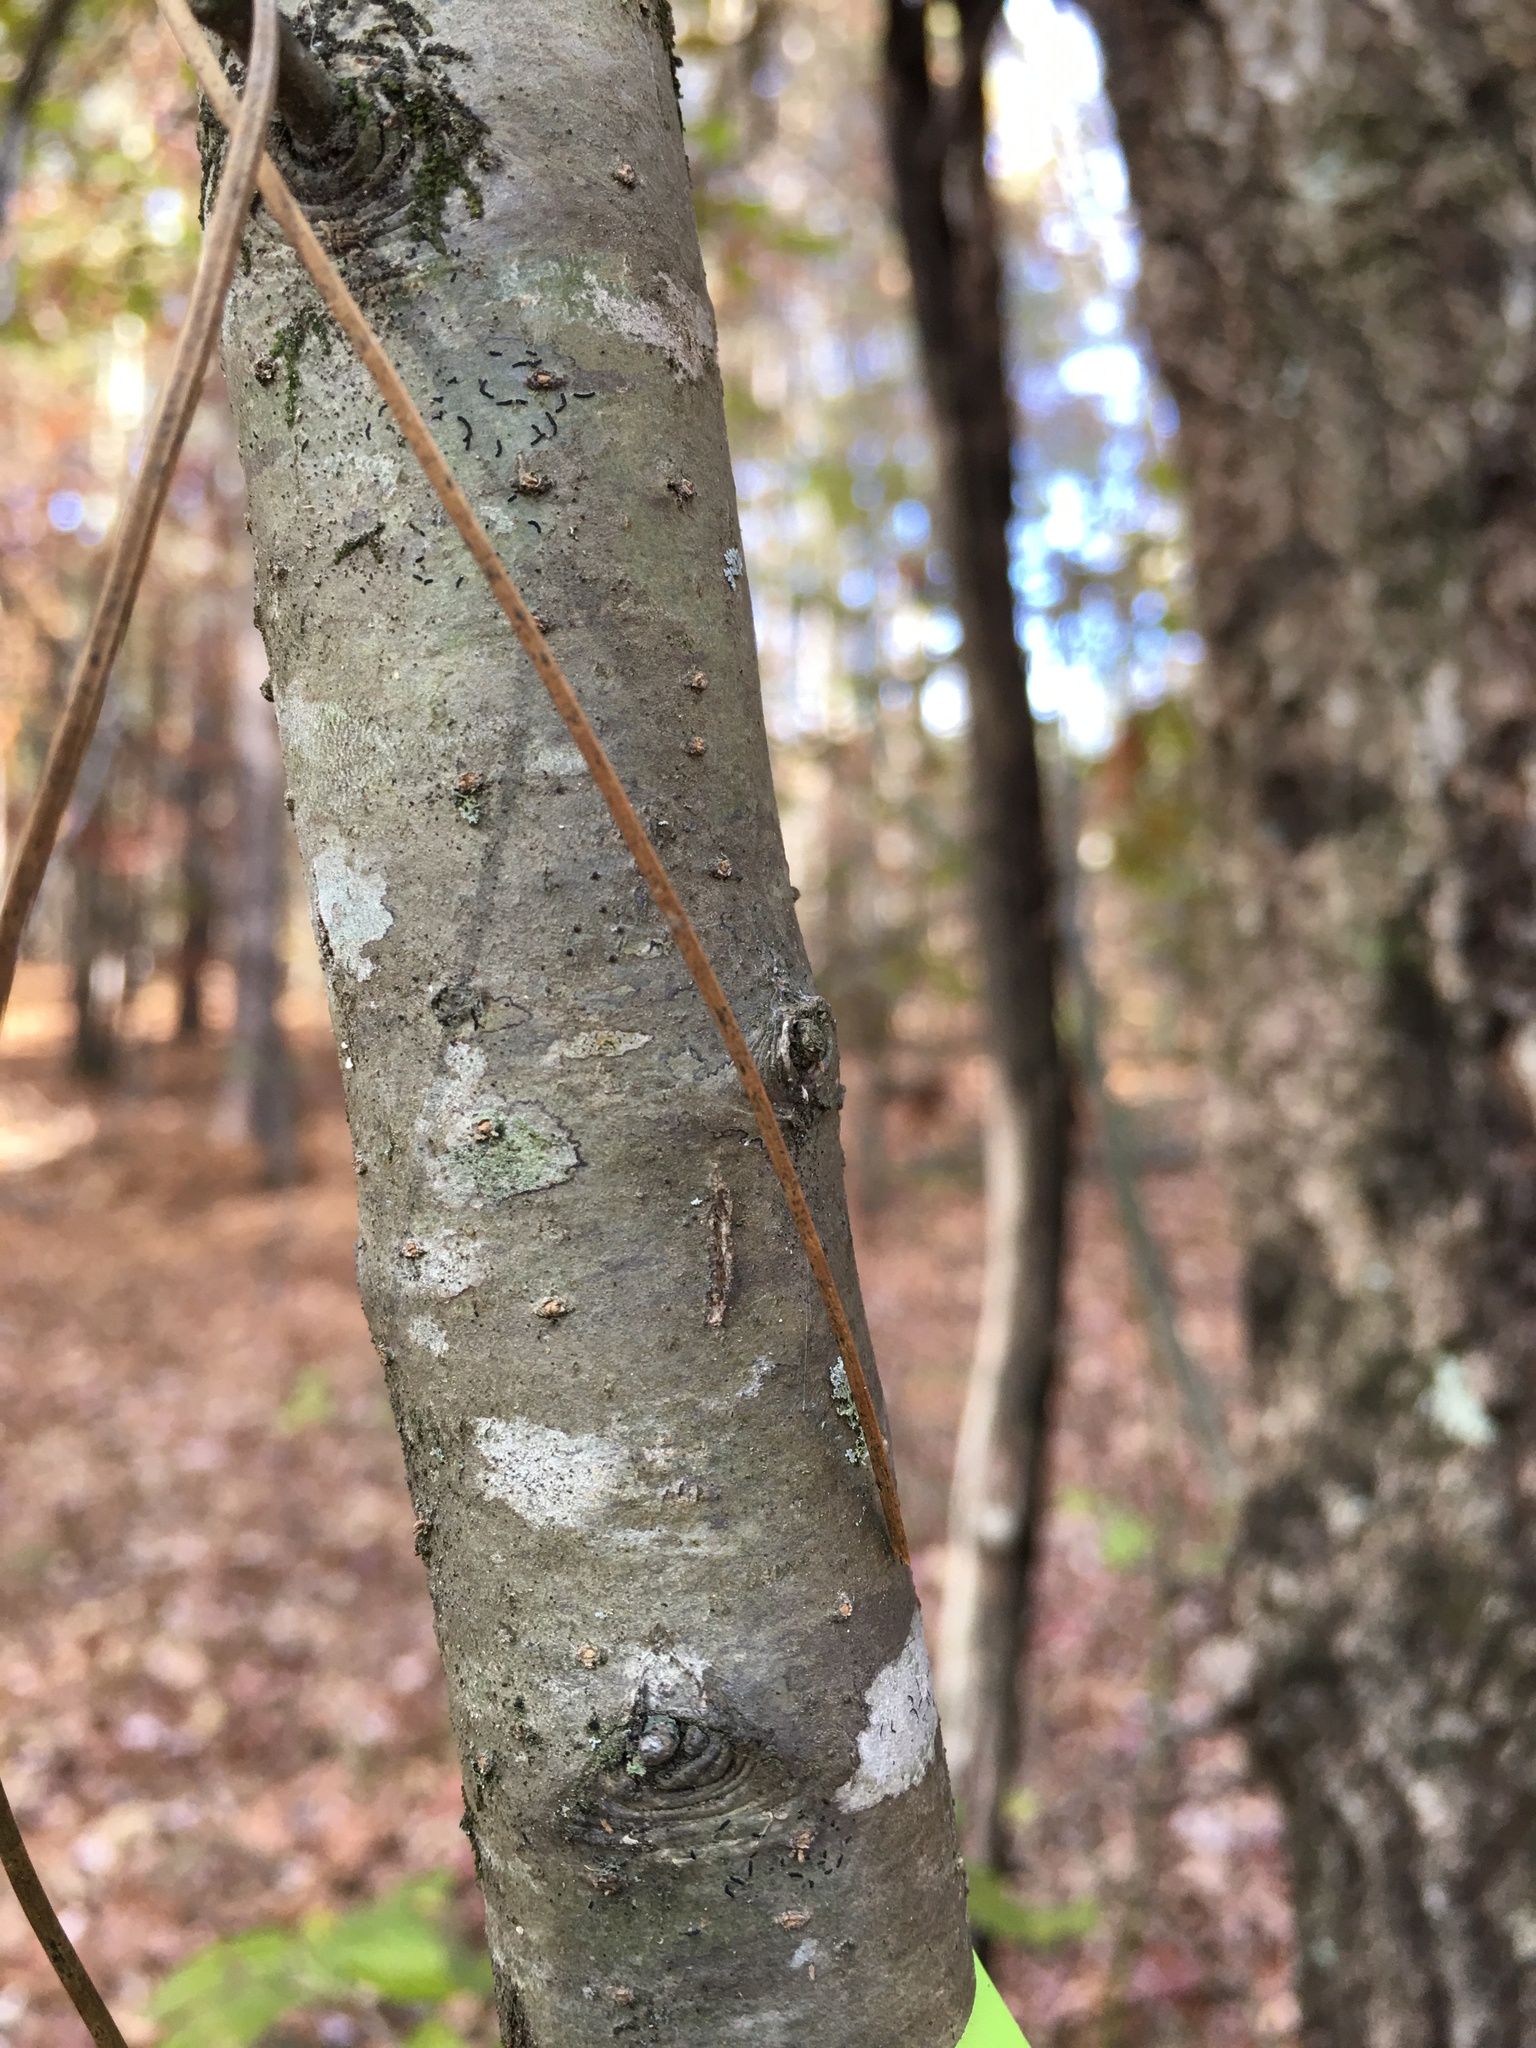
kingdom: Plantae
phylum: Tracheophyta
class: Magnoliopsida
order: Aquifoliales
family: Aquifoliaceae
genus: Ilex
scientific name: Ilex decidua
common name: Possum-haw
